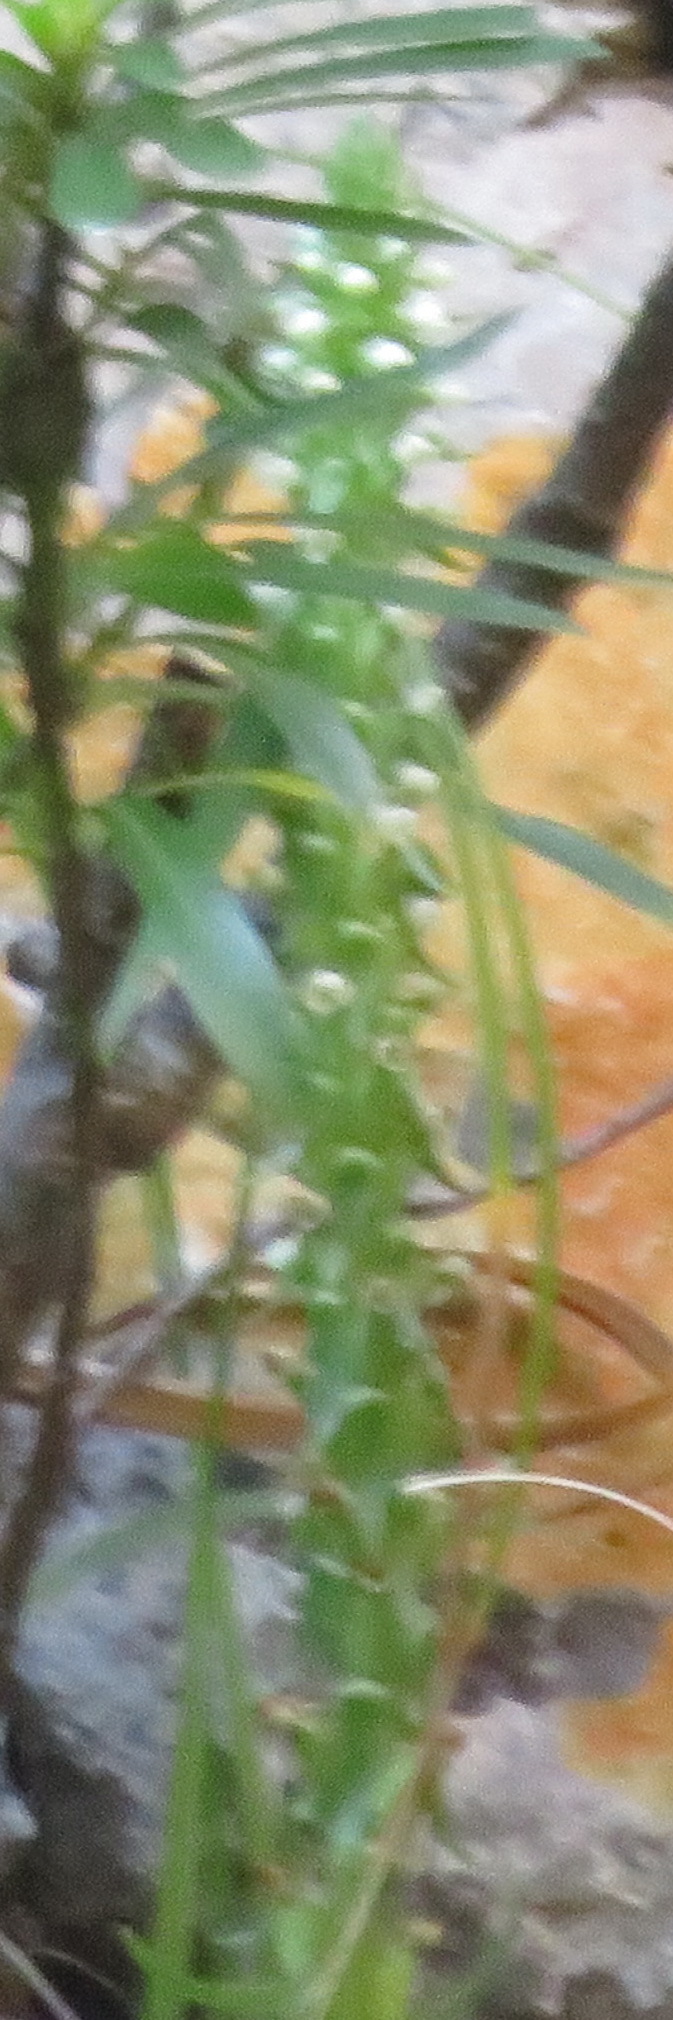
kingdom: Plantae
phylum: Tracheophyta
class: Liliopsida
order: Asparagales
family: Orchidaceae
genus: Satyrium
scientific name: Satyrium rupestre
